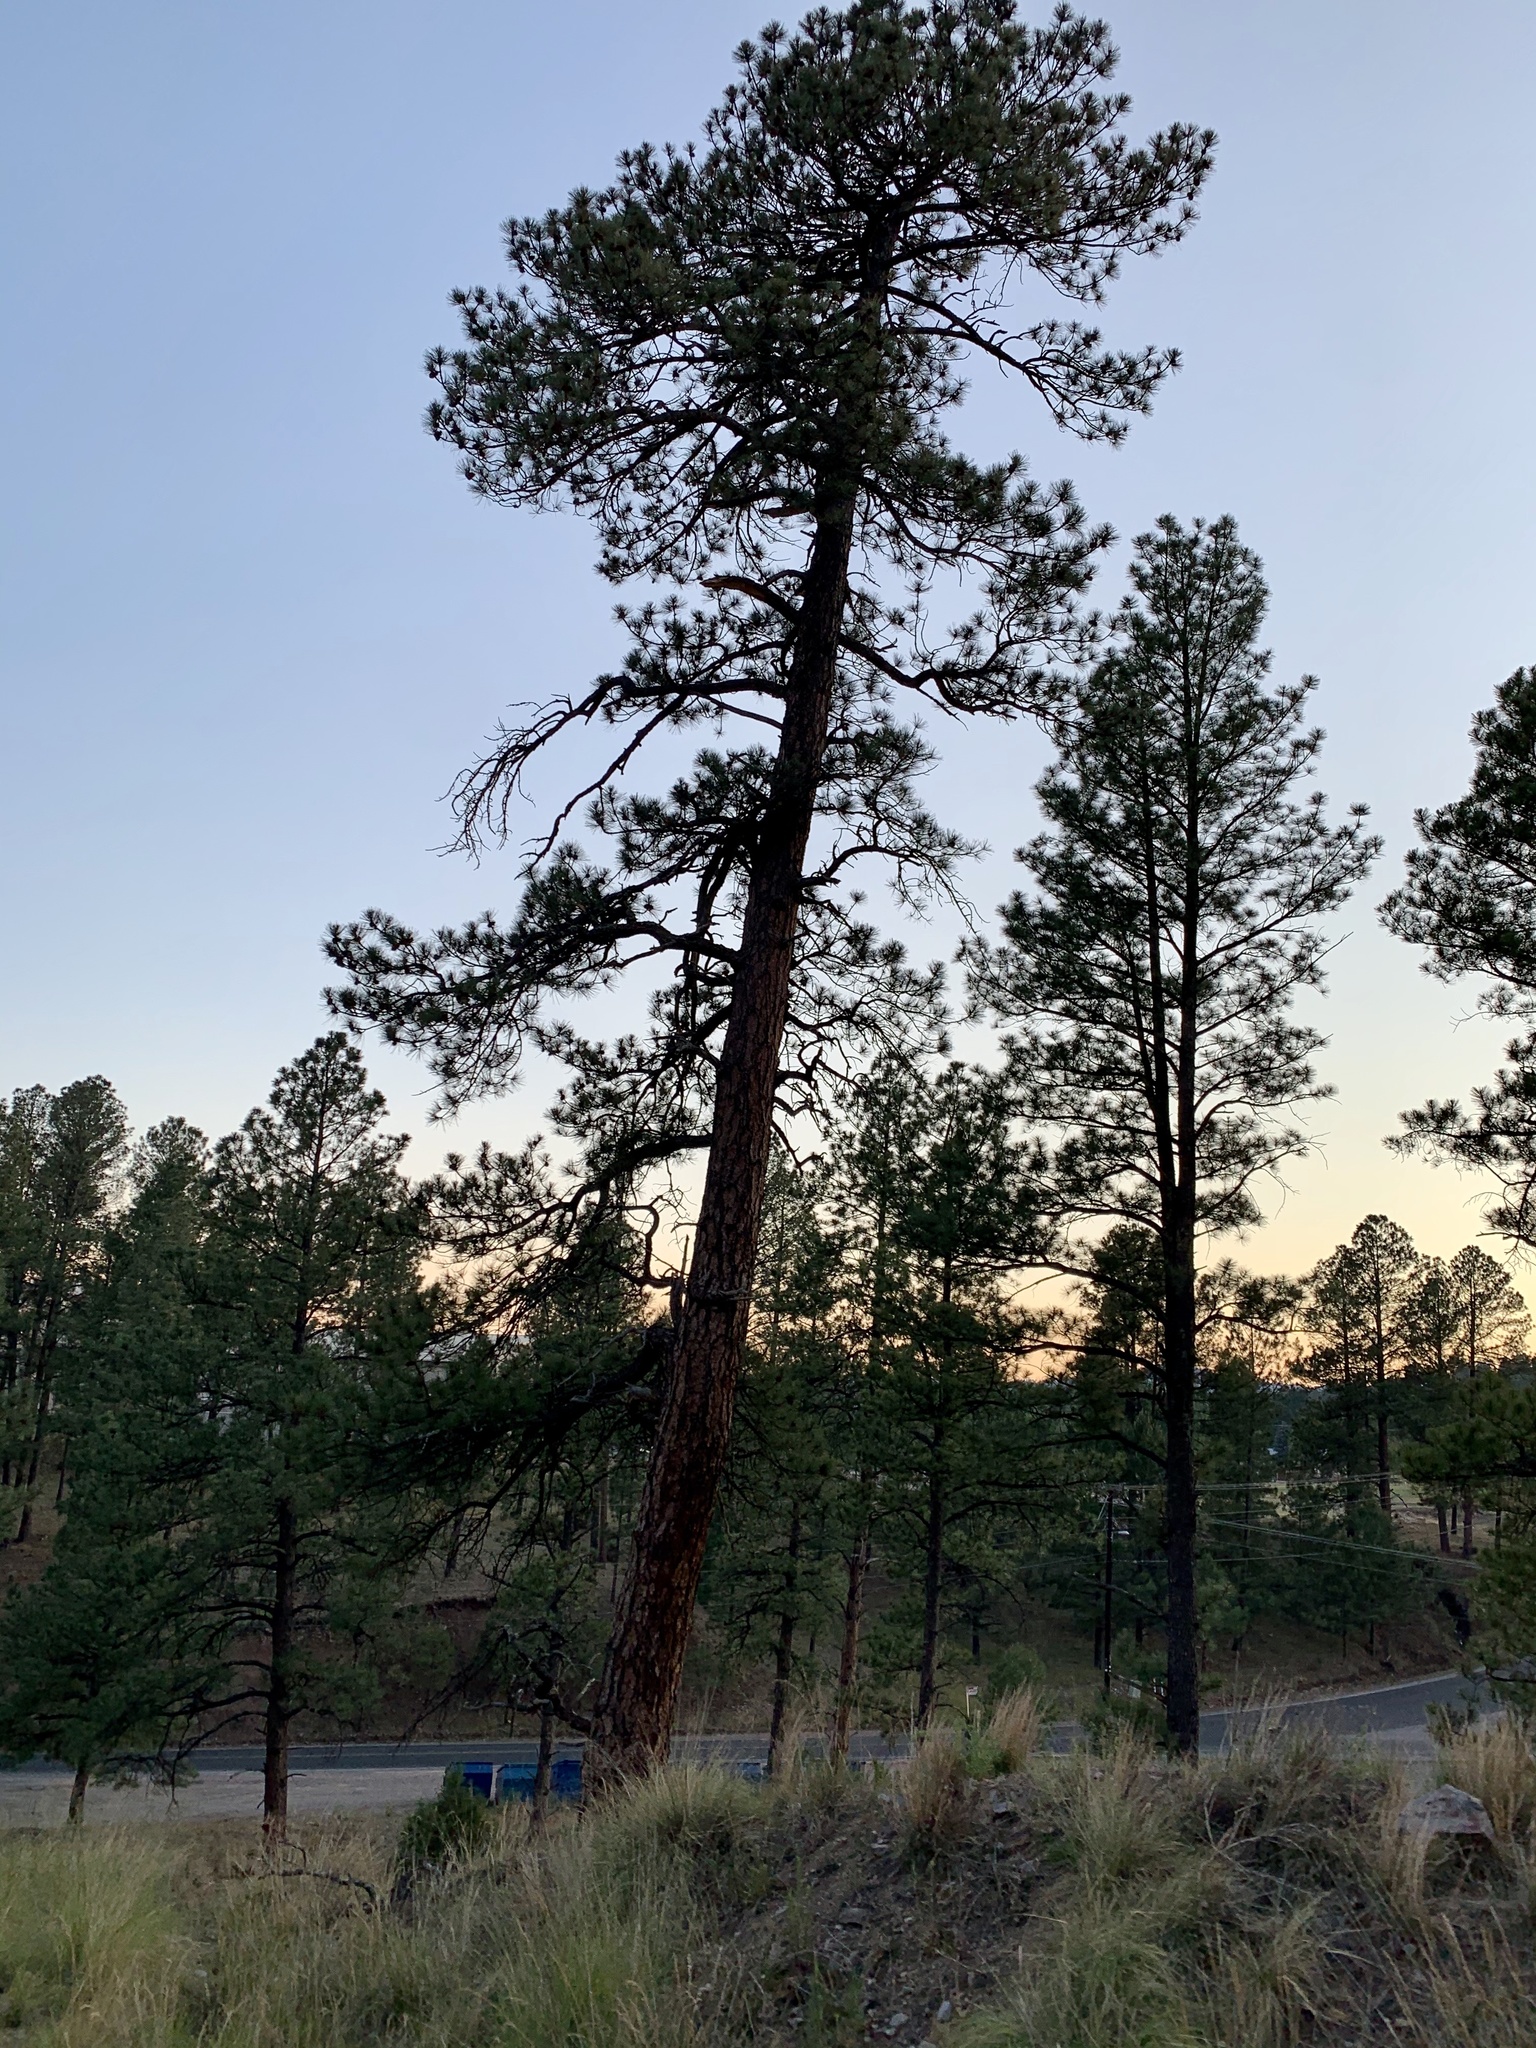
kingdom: Plantae
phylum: Tracheophyta
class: Pinopsida
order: Pinales
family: Pinaceae
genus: Pinus
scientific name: Pinus ponderosa
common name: Western yellow-pine
